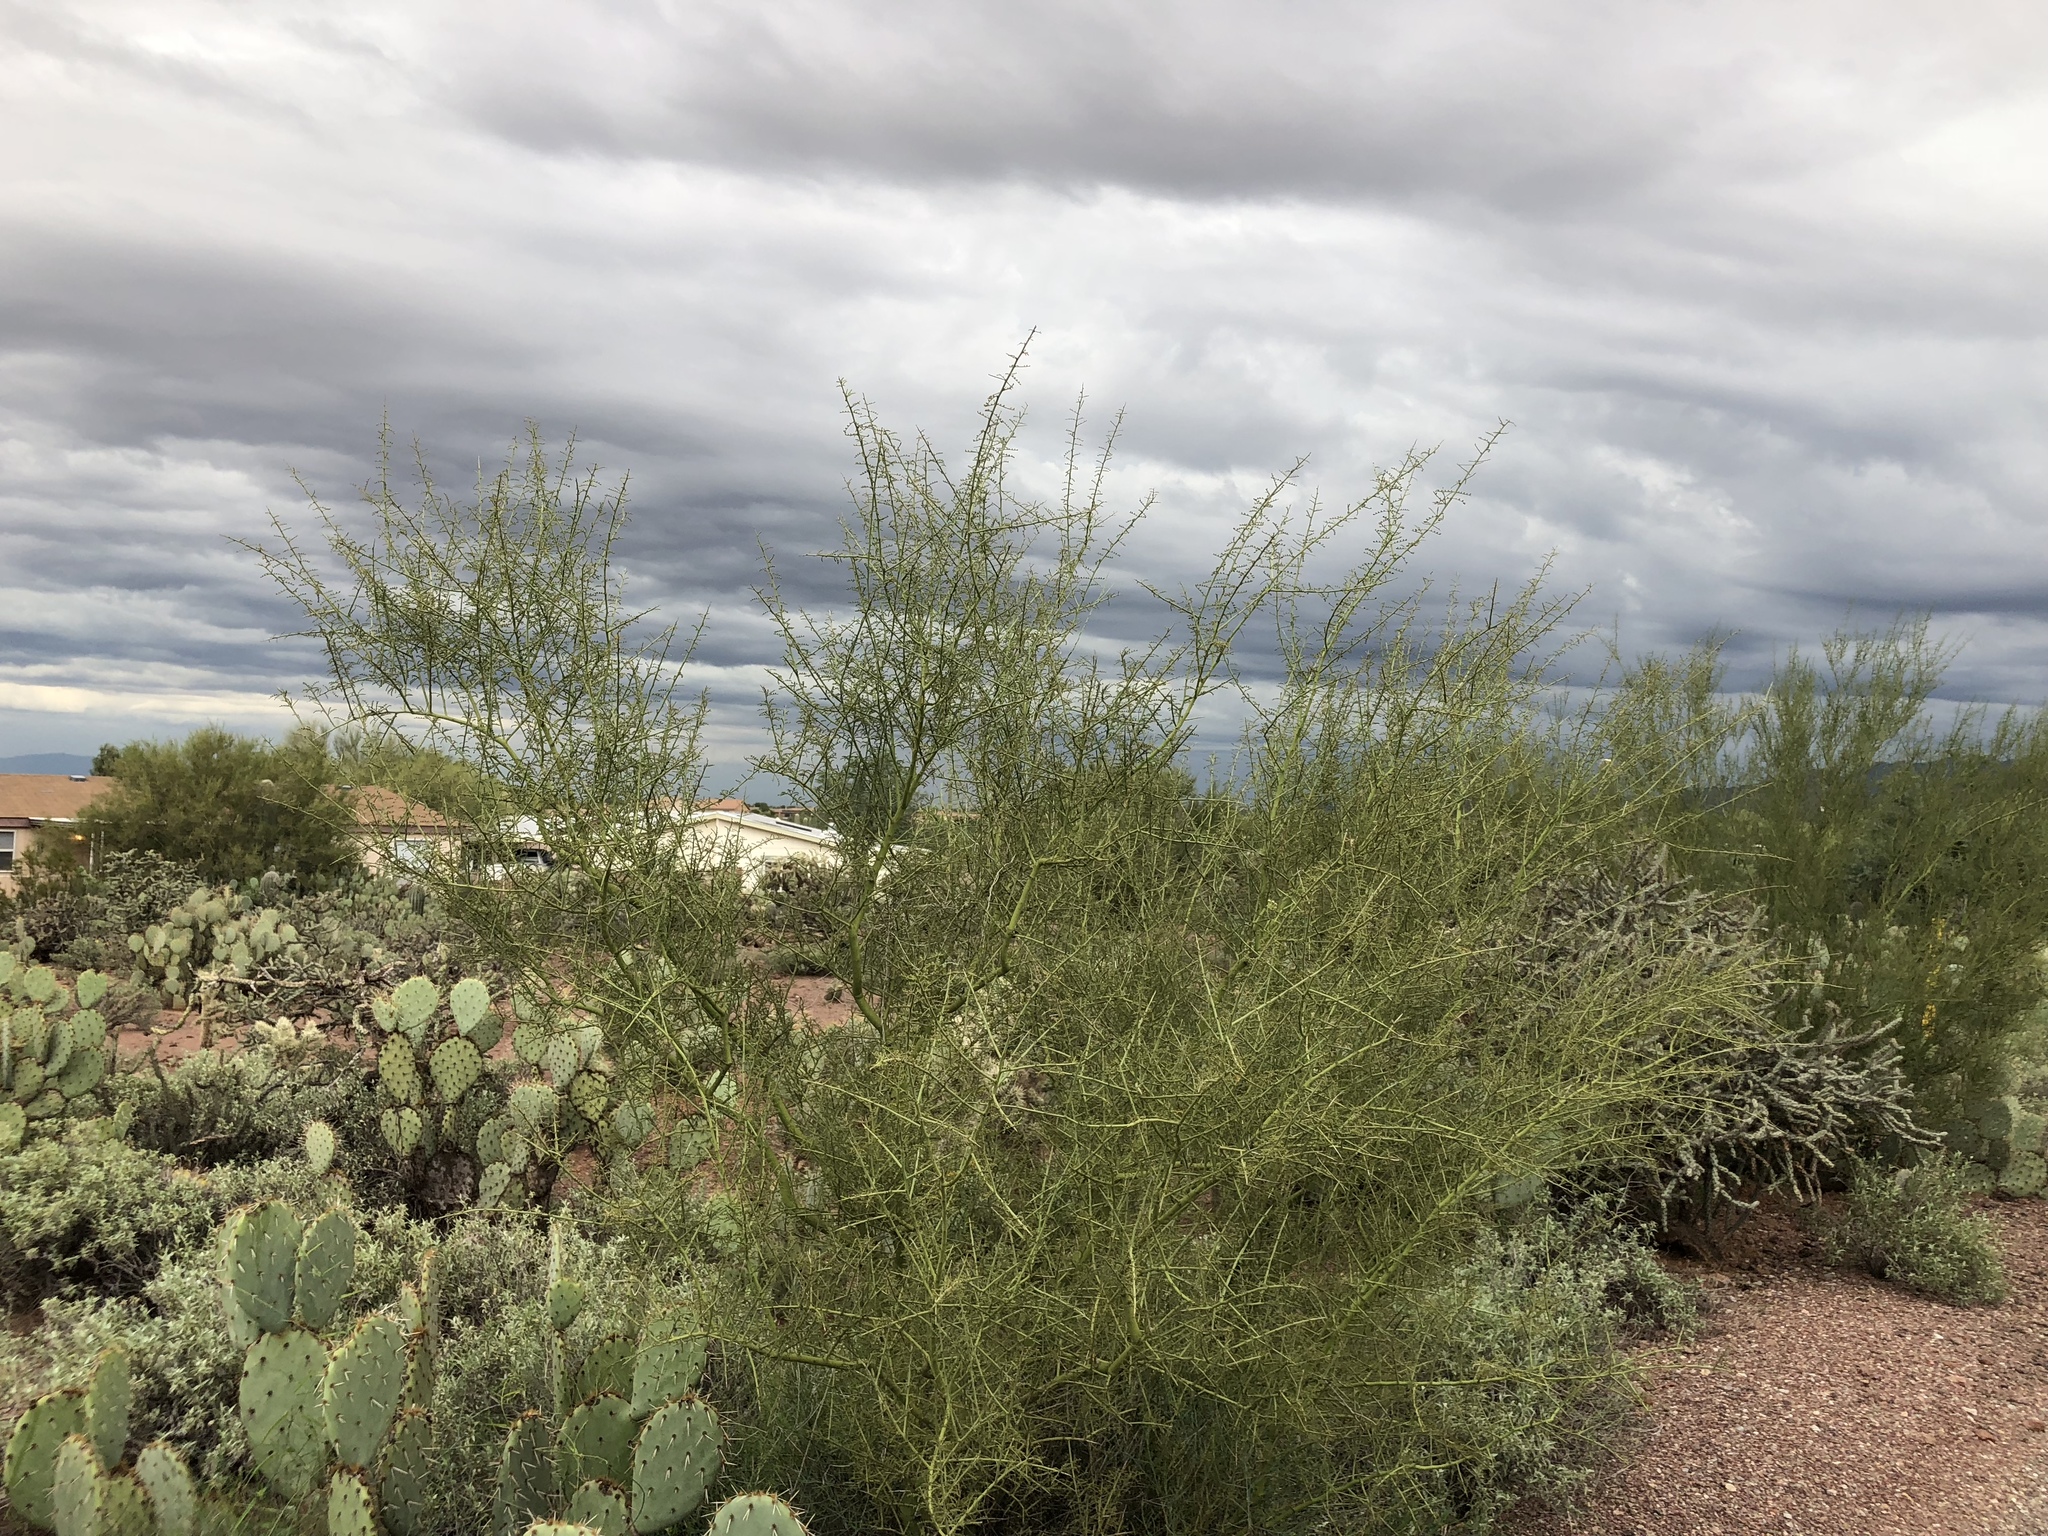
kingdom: Plantae
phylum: Tracheophyta
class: Magnoliopsida
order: Fabales
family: Fabaceae
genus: Parkinsonia
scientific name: Parkinsonia microphylla
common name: Yellow paloverde
